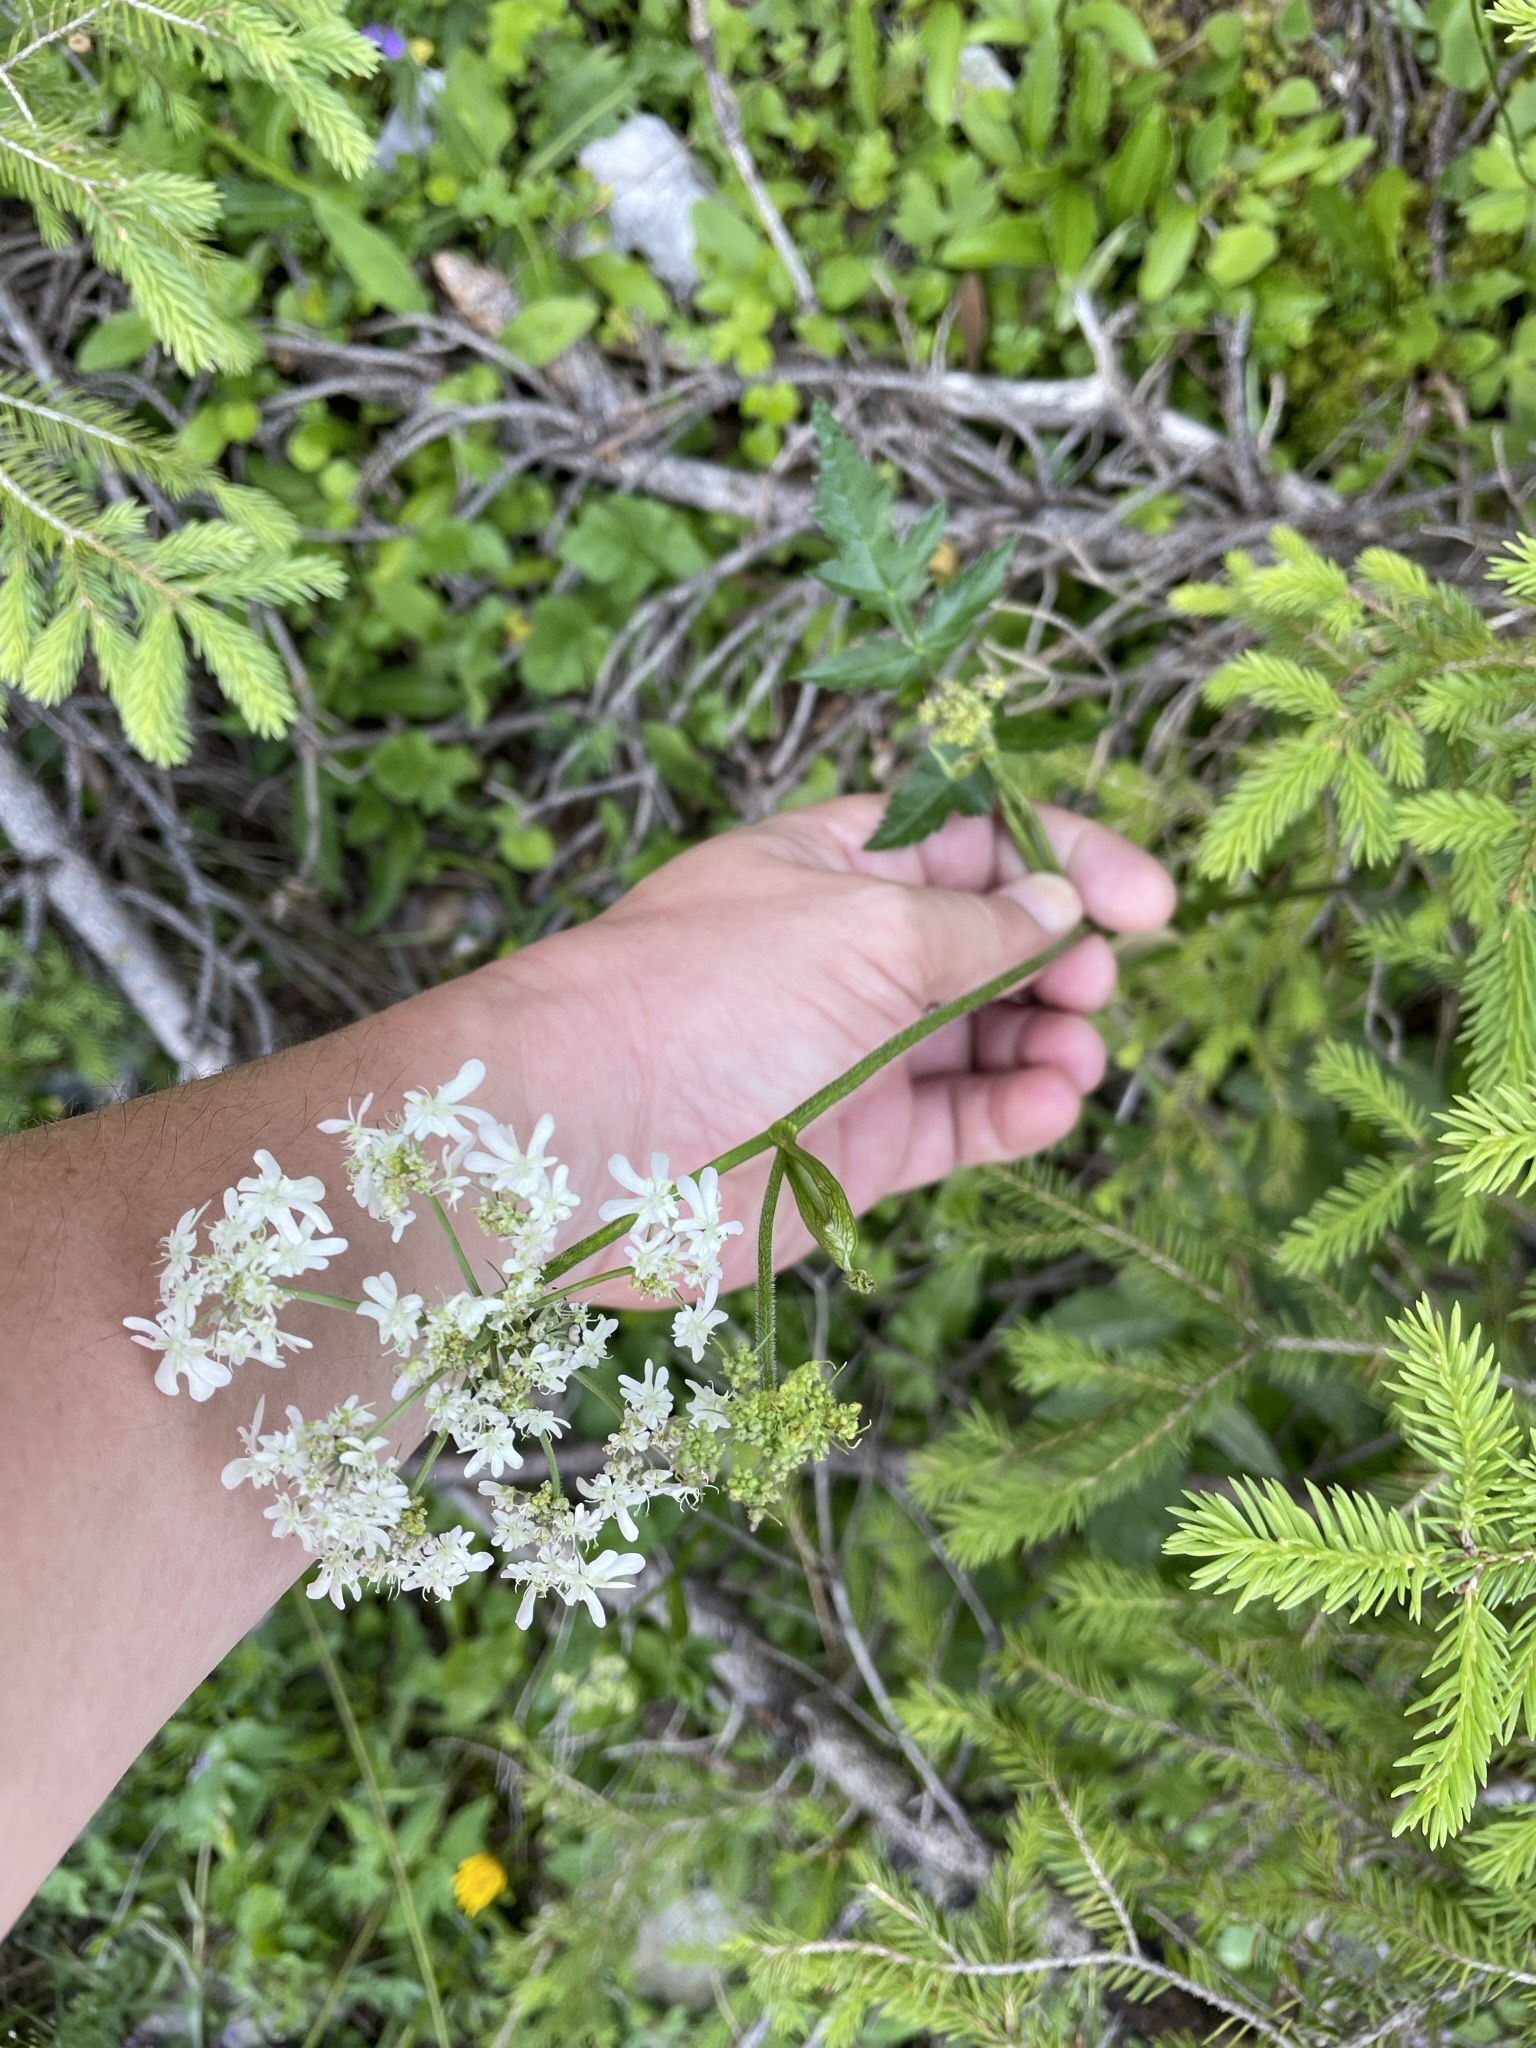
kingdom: Plantae
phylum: Tracheophyta
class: Magnoliopsida
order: Apiales
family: Apiaceae
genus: Heracleum
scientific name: Heracleum austriacum
